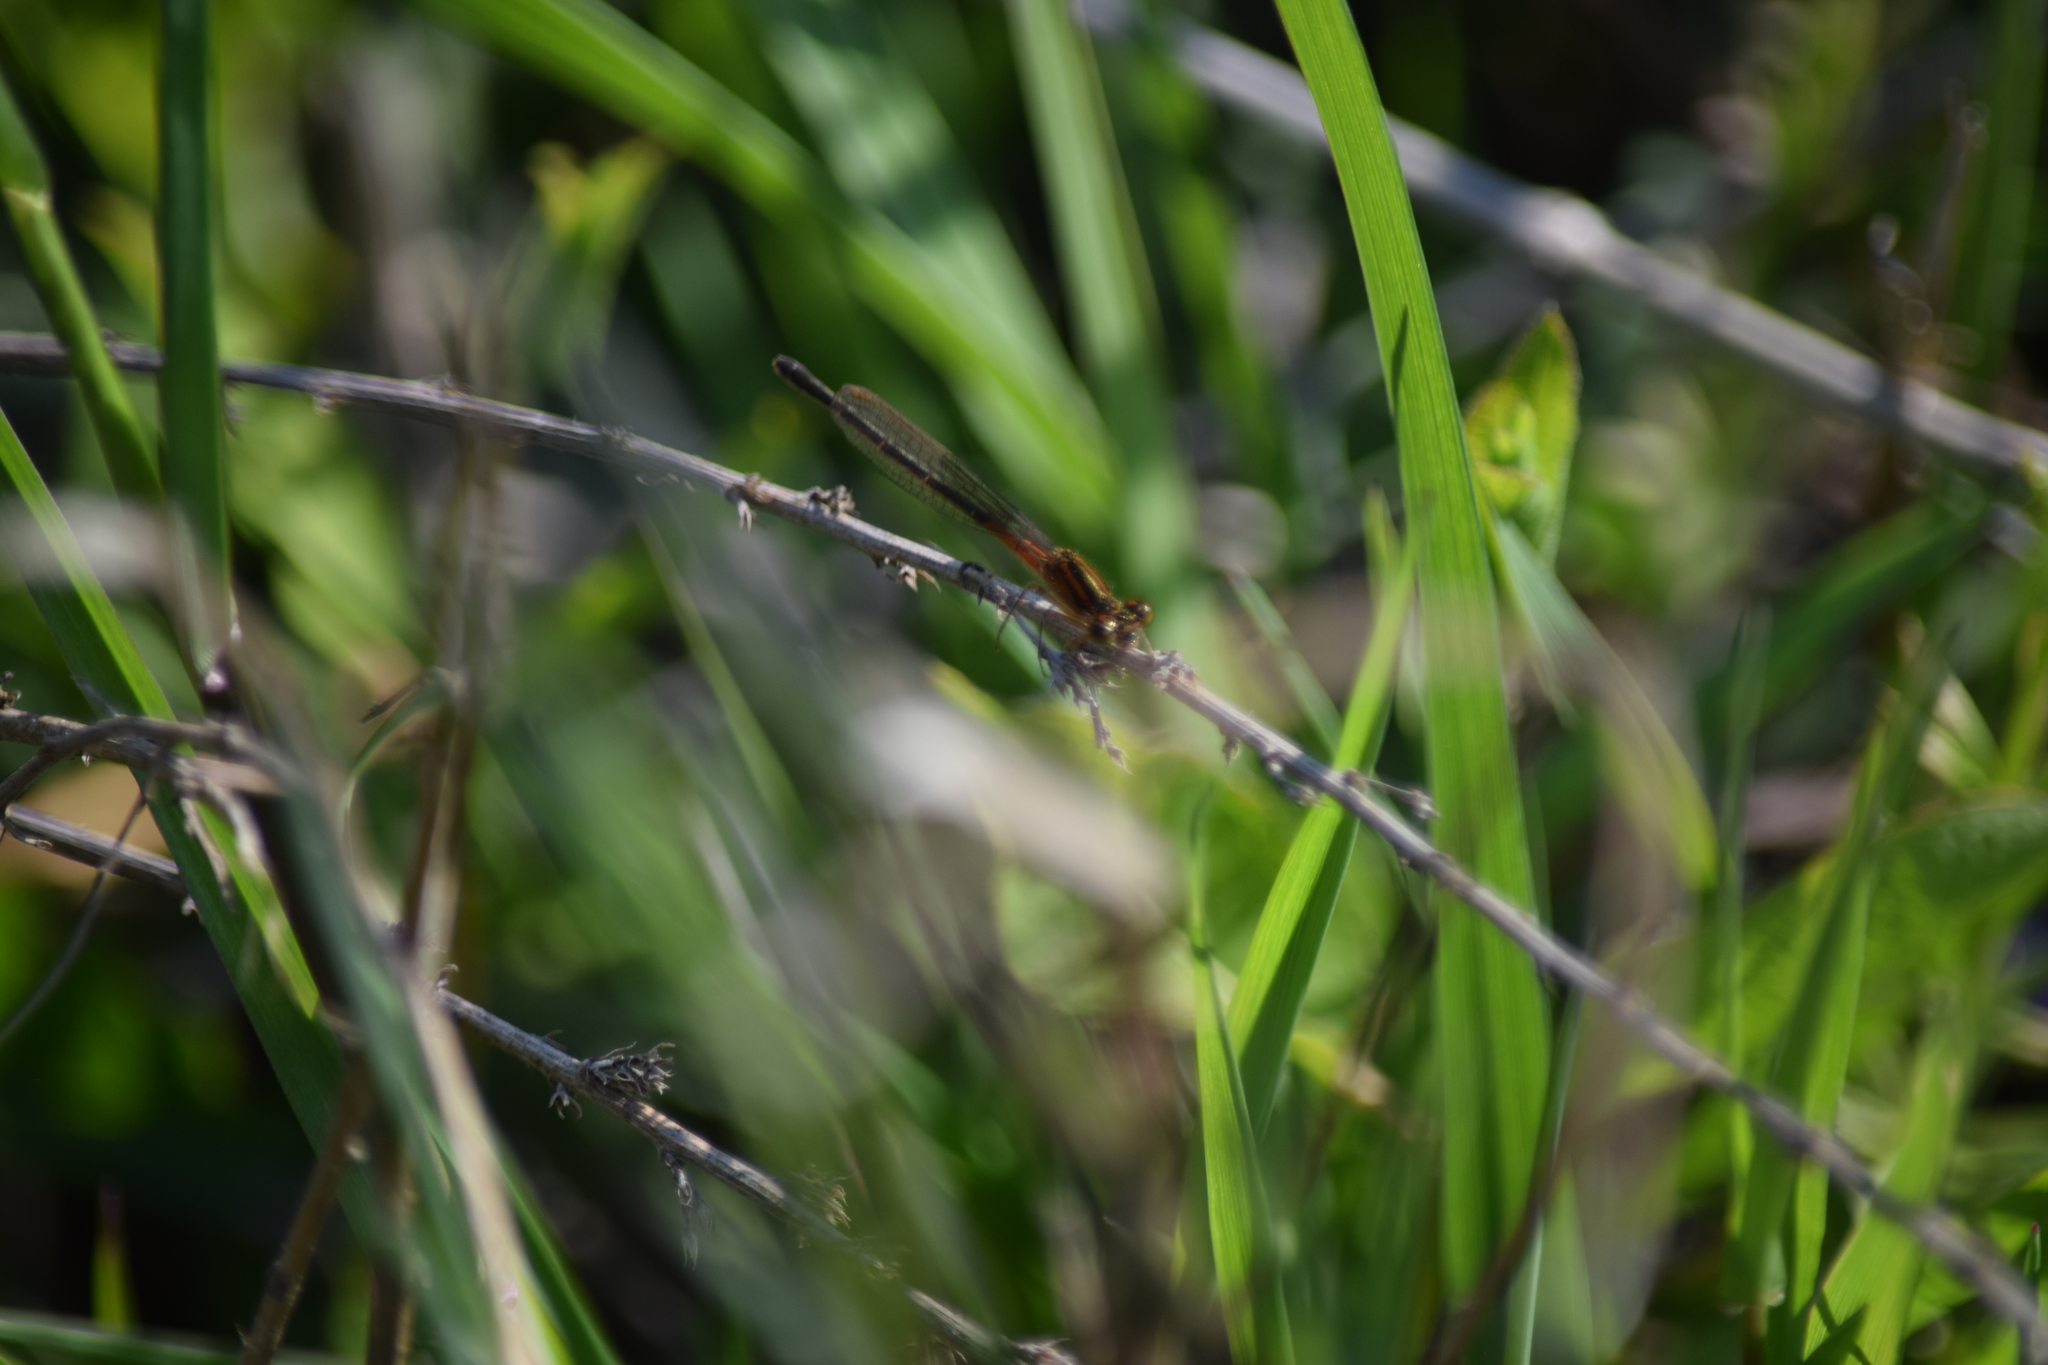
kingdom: Animalia
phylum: Arthropoda
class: Insecta
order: Odonata
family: Coenagrionidae
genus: Ischnura
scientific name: Ischnura verticalis
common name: Eastern forktail
